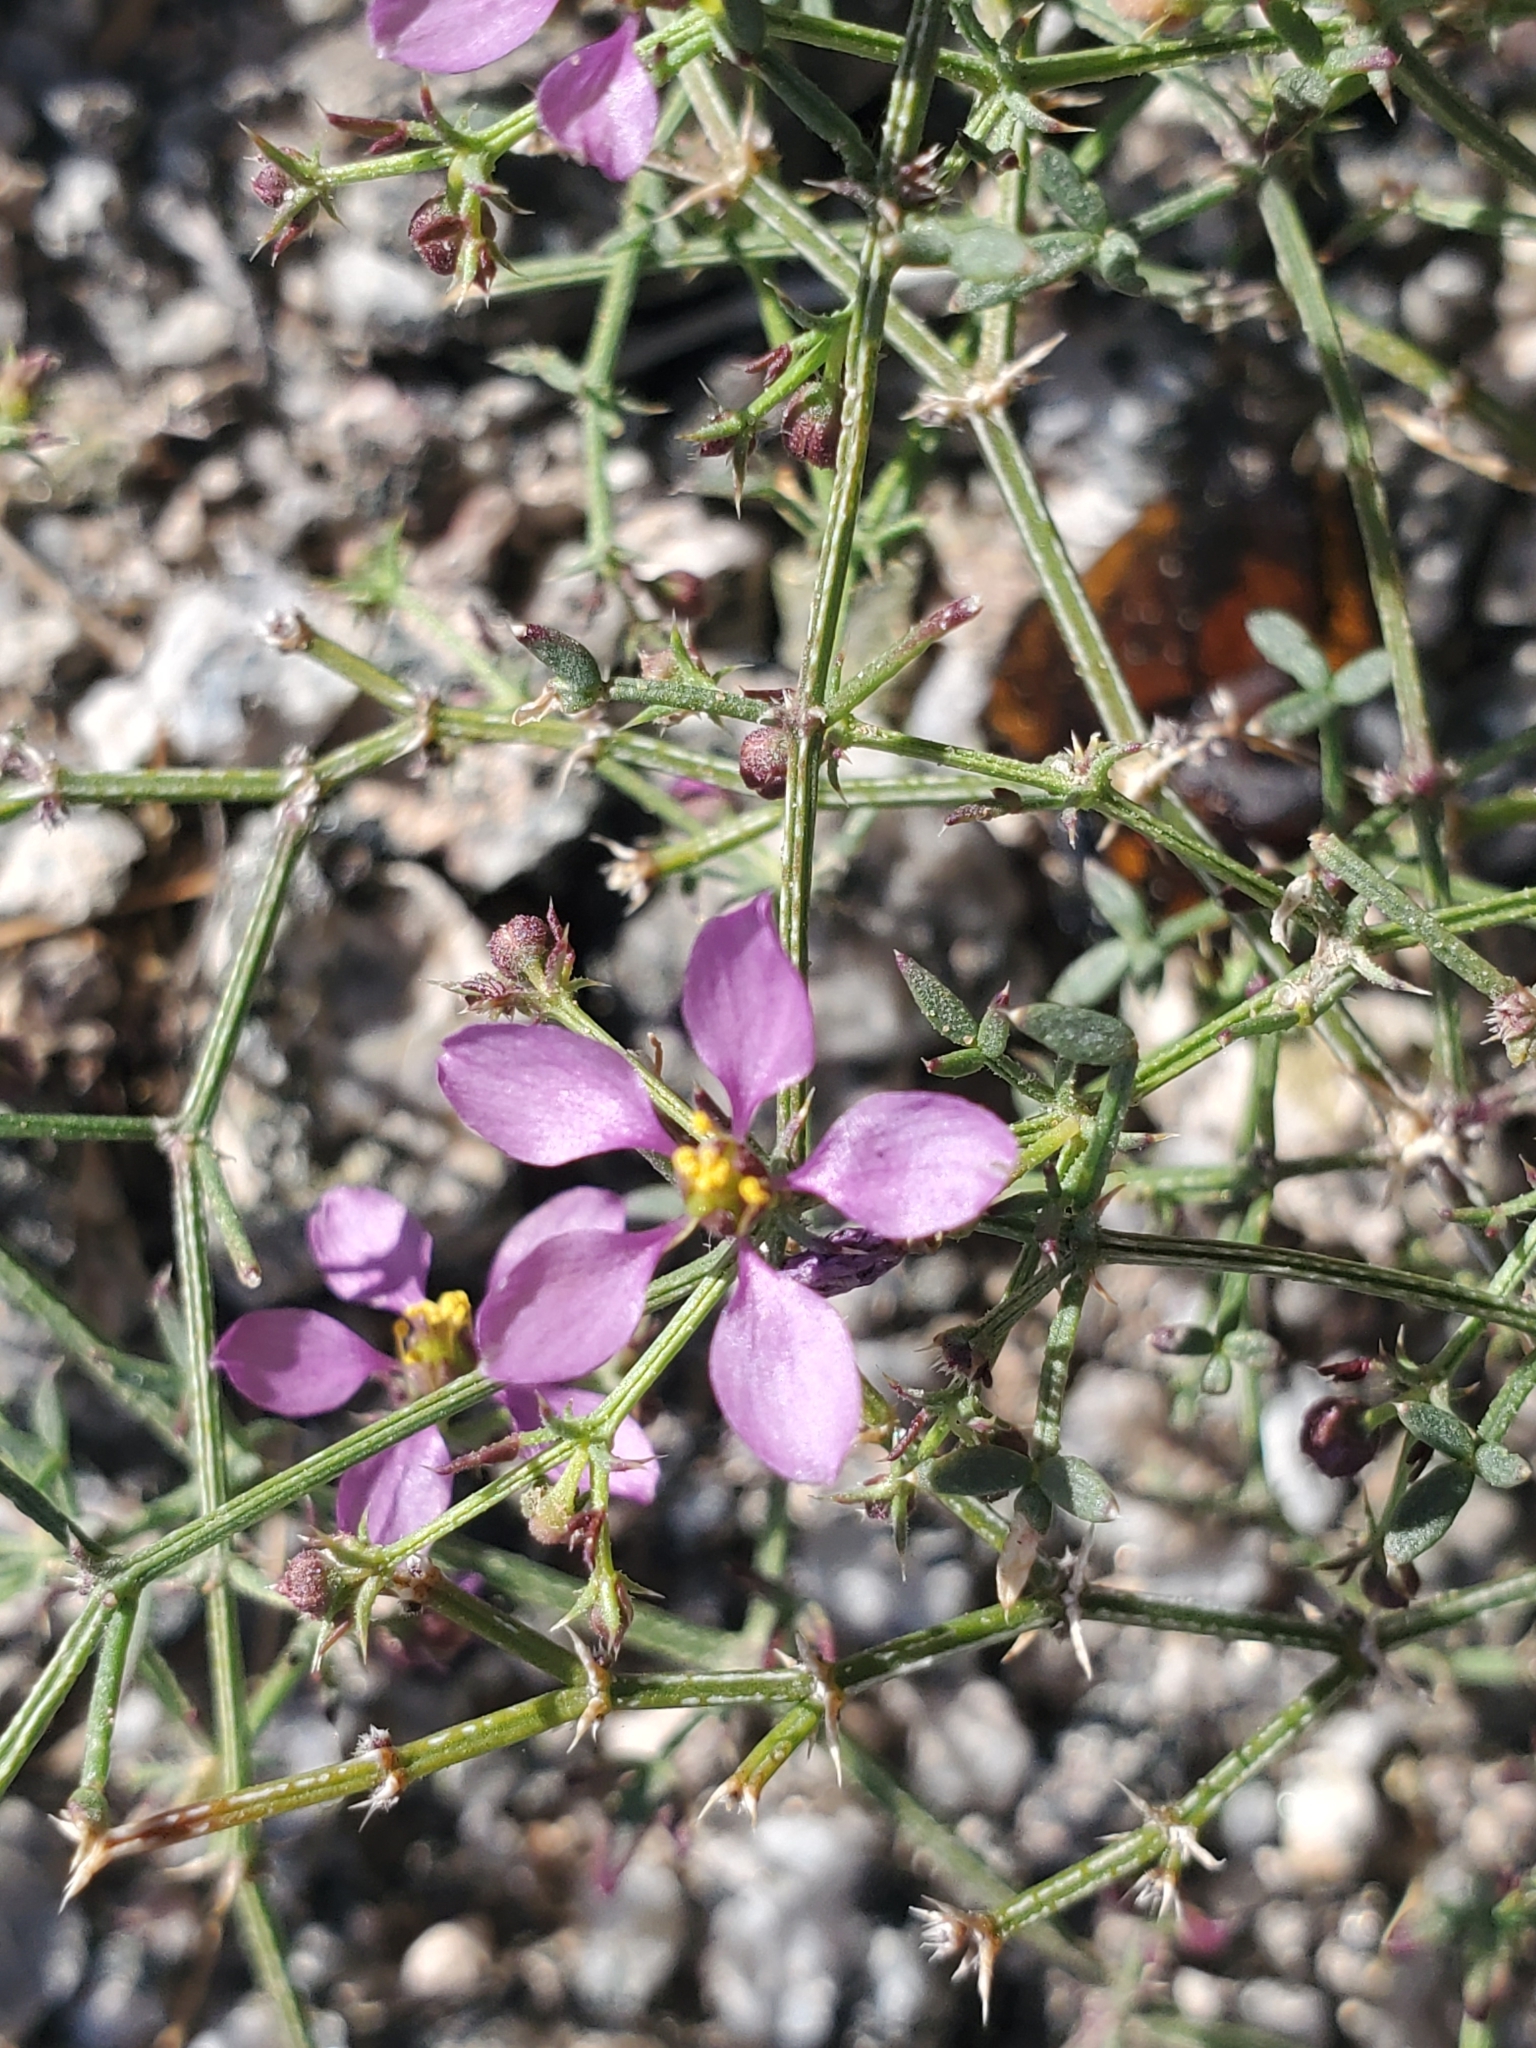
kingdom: Plantae
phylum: Tracheophyta
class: Magnoliopsida
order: Zygophyllales
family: Zygophyllaceae
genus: Fagonia
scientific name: Fagonia laevis
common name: California fagonbush
